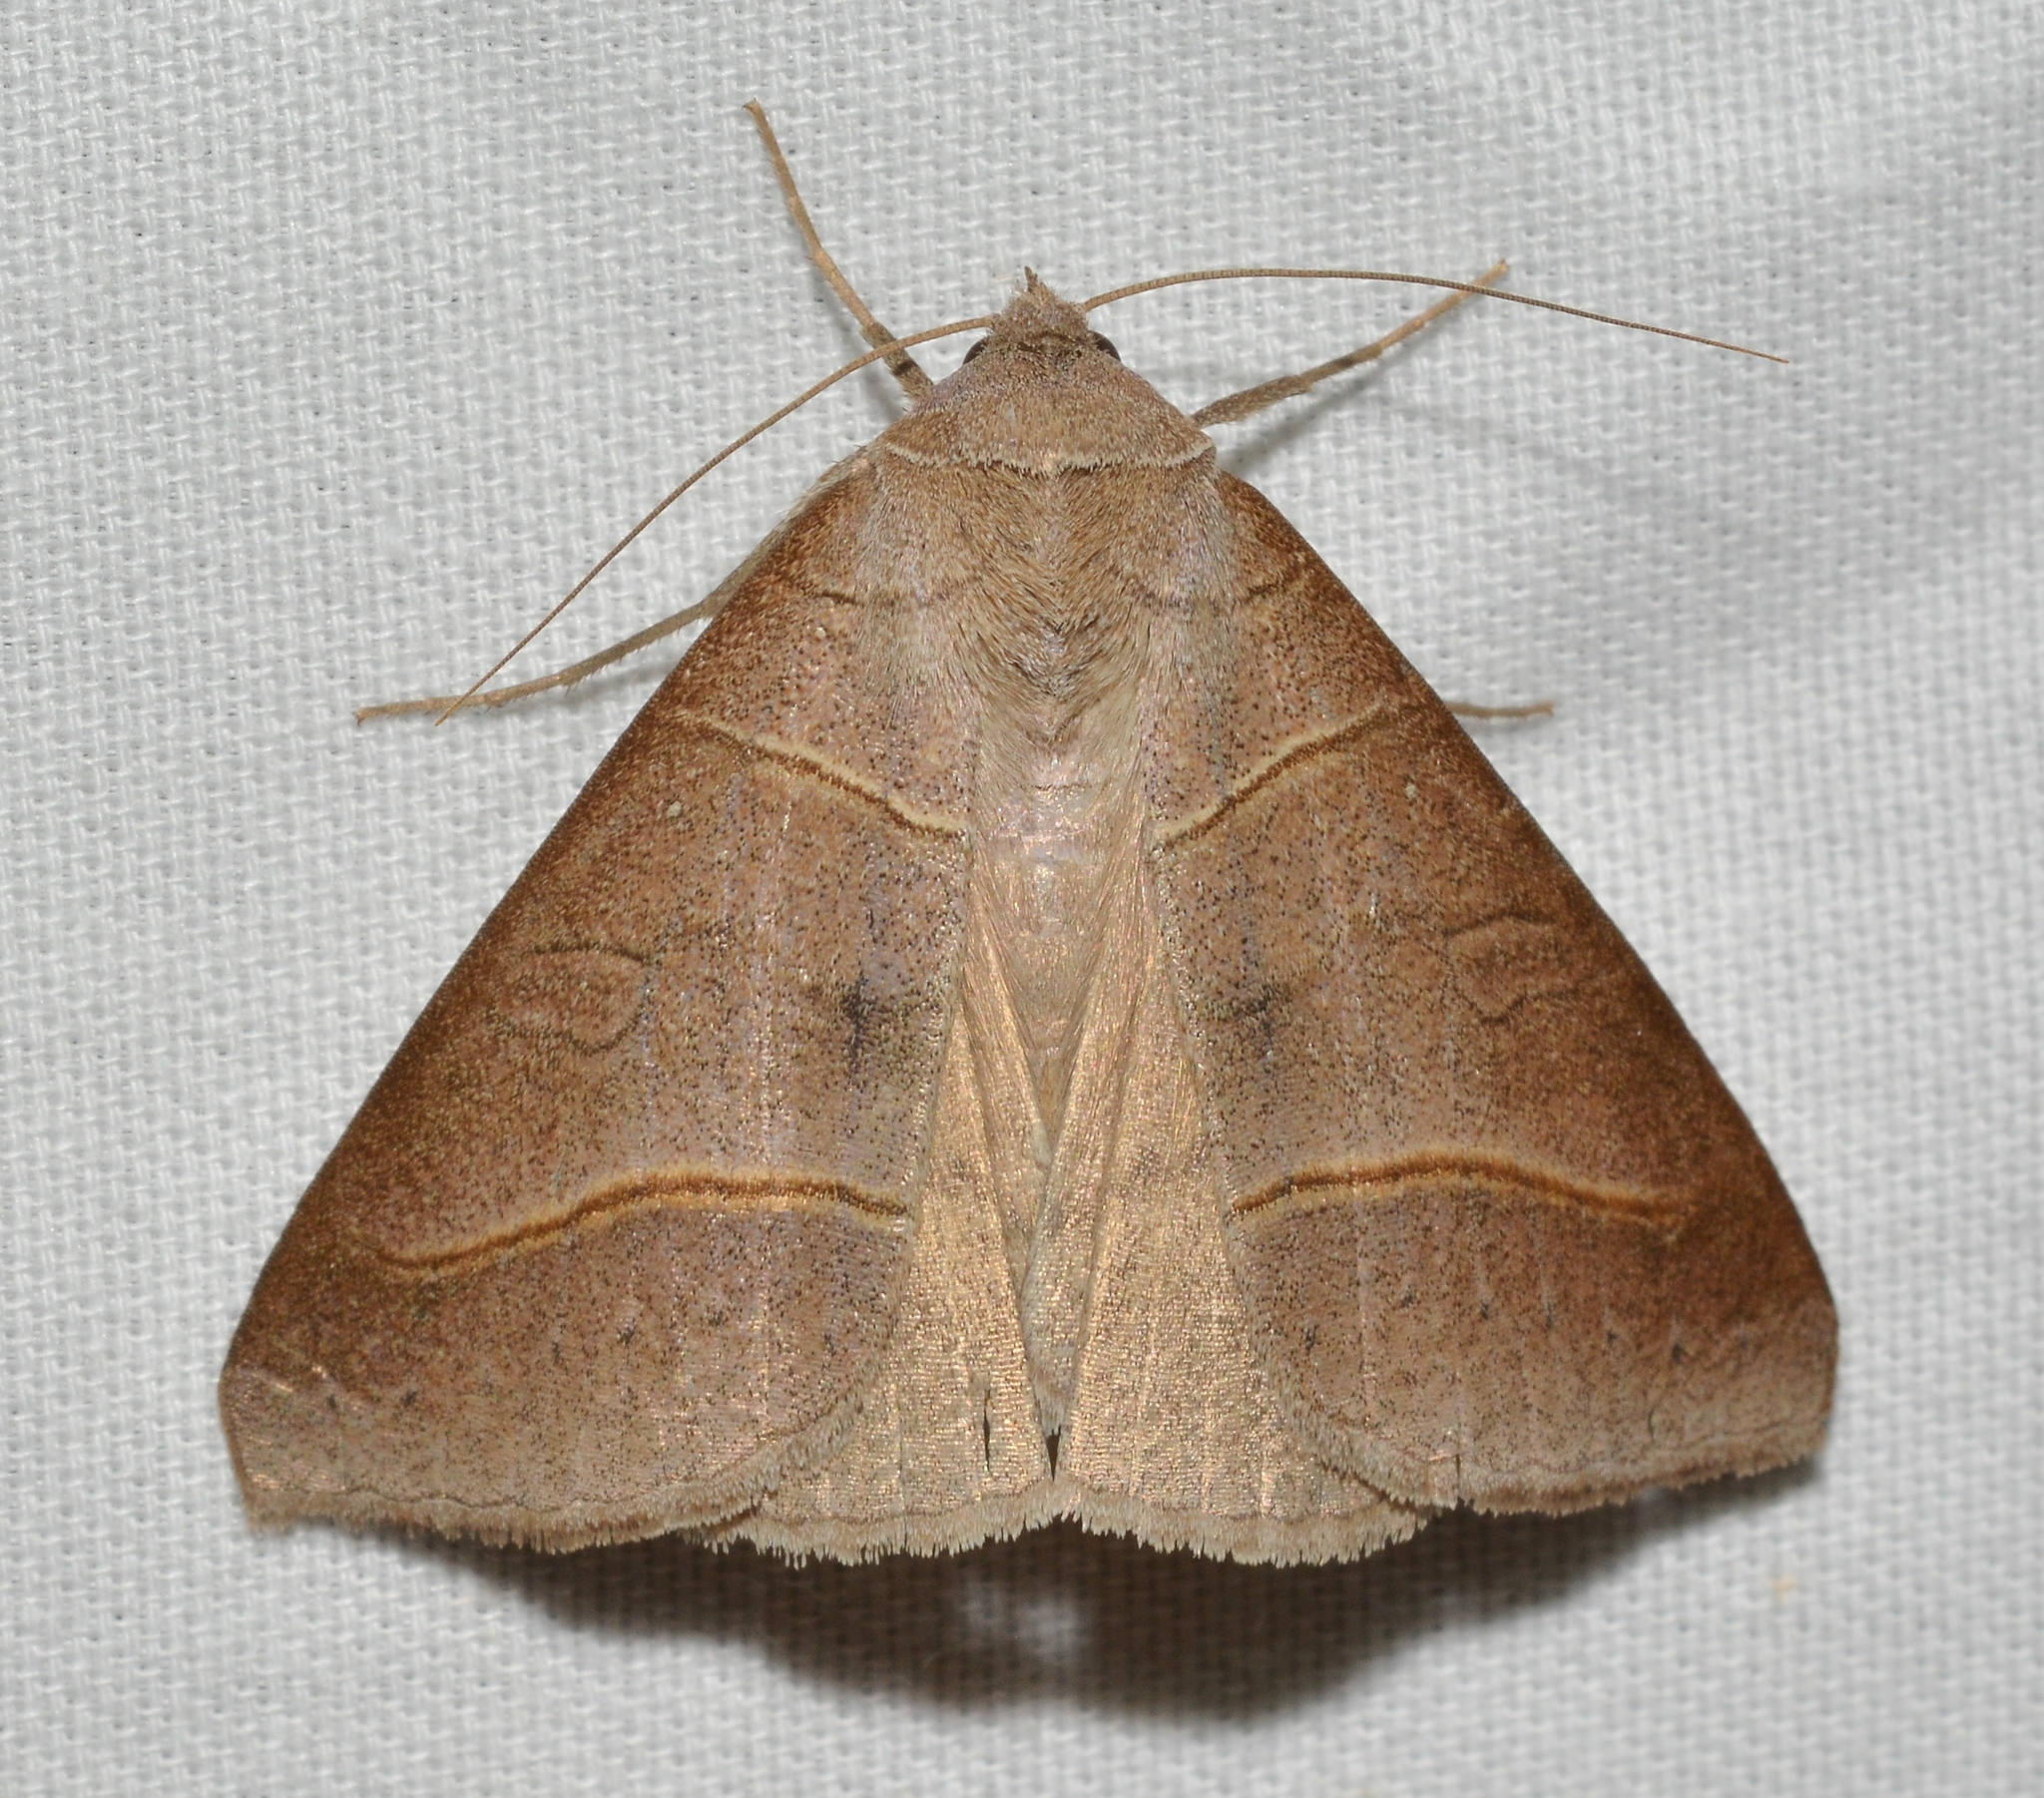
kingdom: Animalia
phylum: Arthropoda
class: Insecta
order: Lepidoptera
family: Erebidae
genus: Mocis
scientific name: Mocis texana
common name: Texas mocis moth
